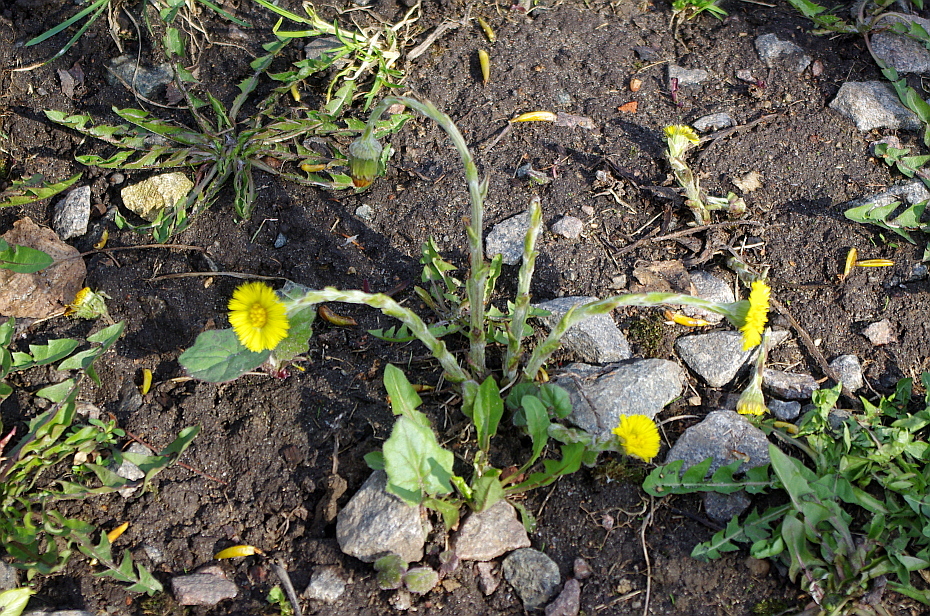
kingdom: Plantae
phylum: Tracheophyta
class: Magnoliopsida
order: Asterales
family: Asteraceae
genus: Tussilago
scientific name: Tussilago farfara
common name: Coltsfoot
